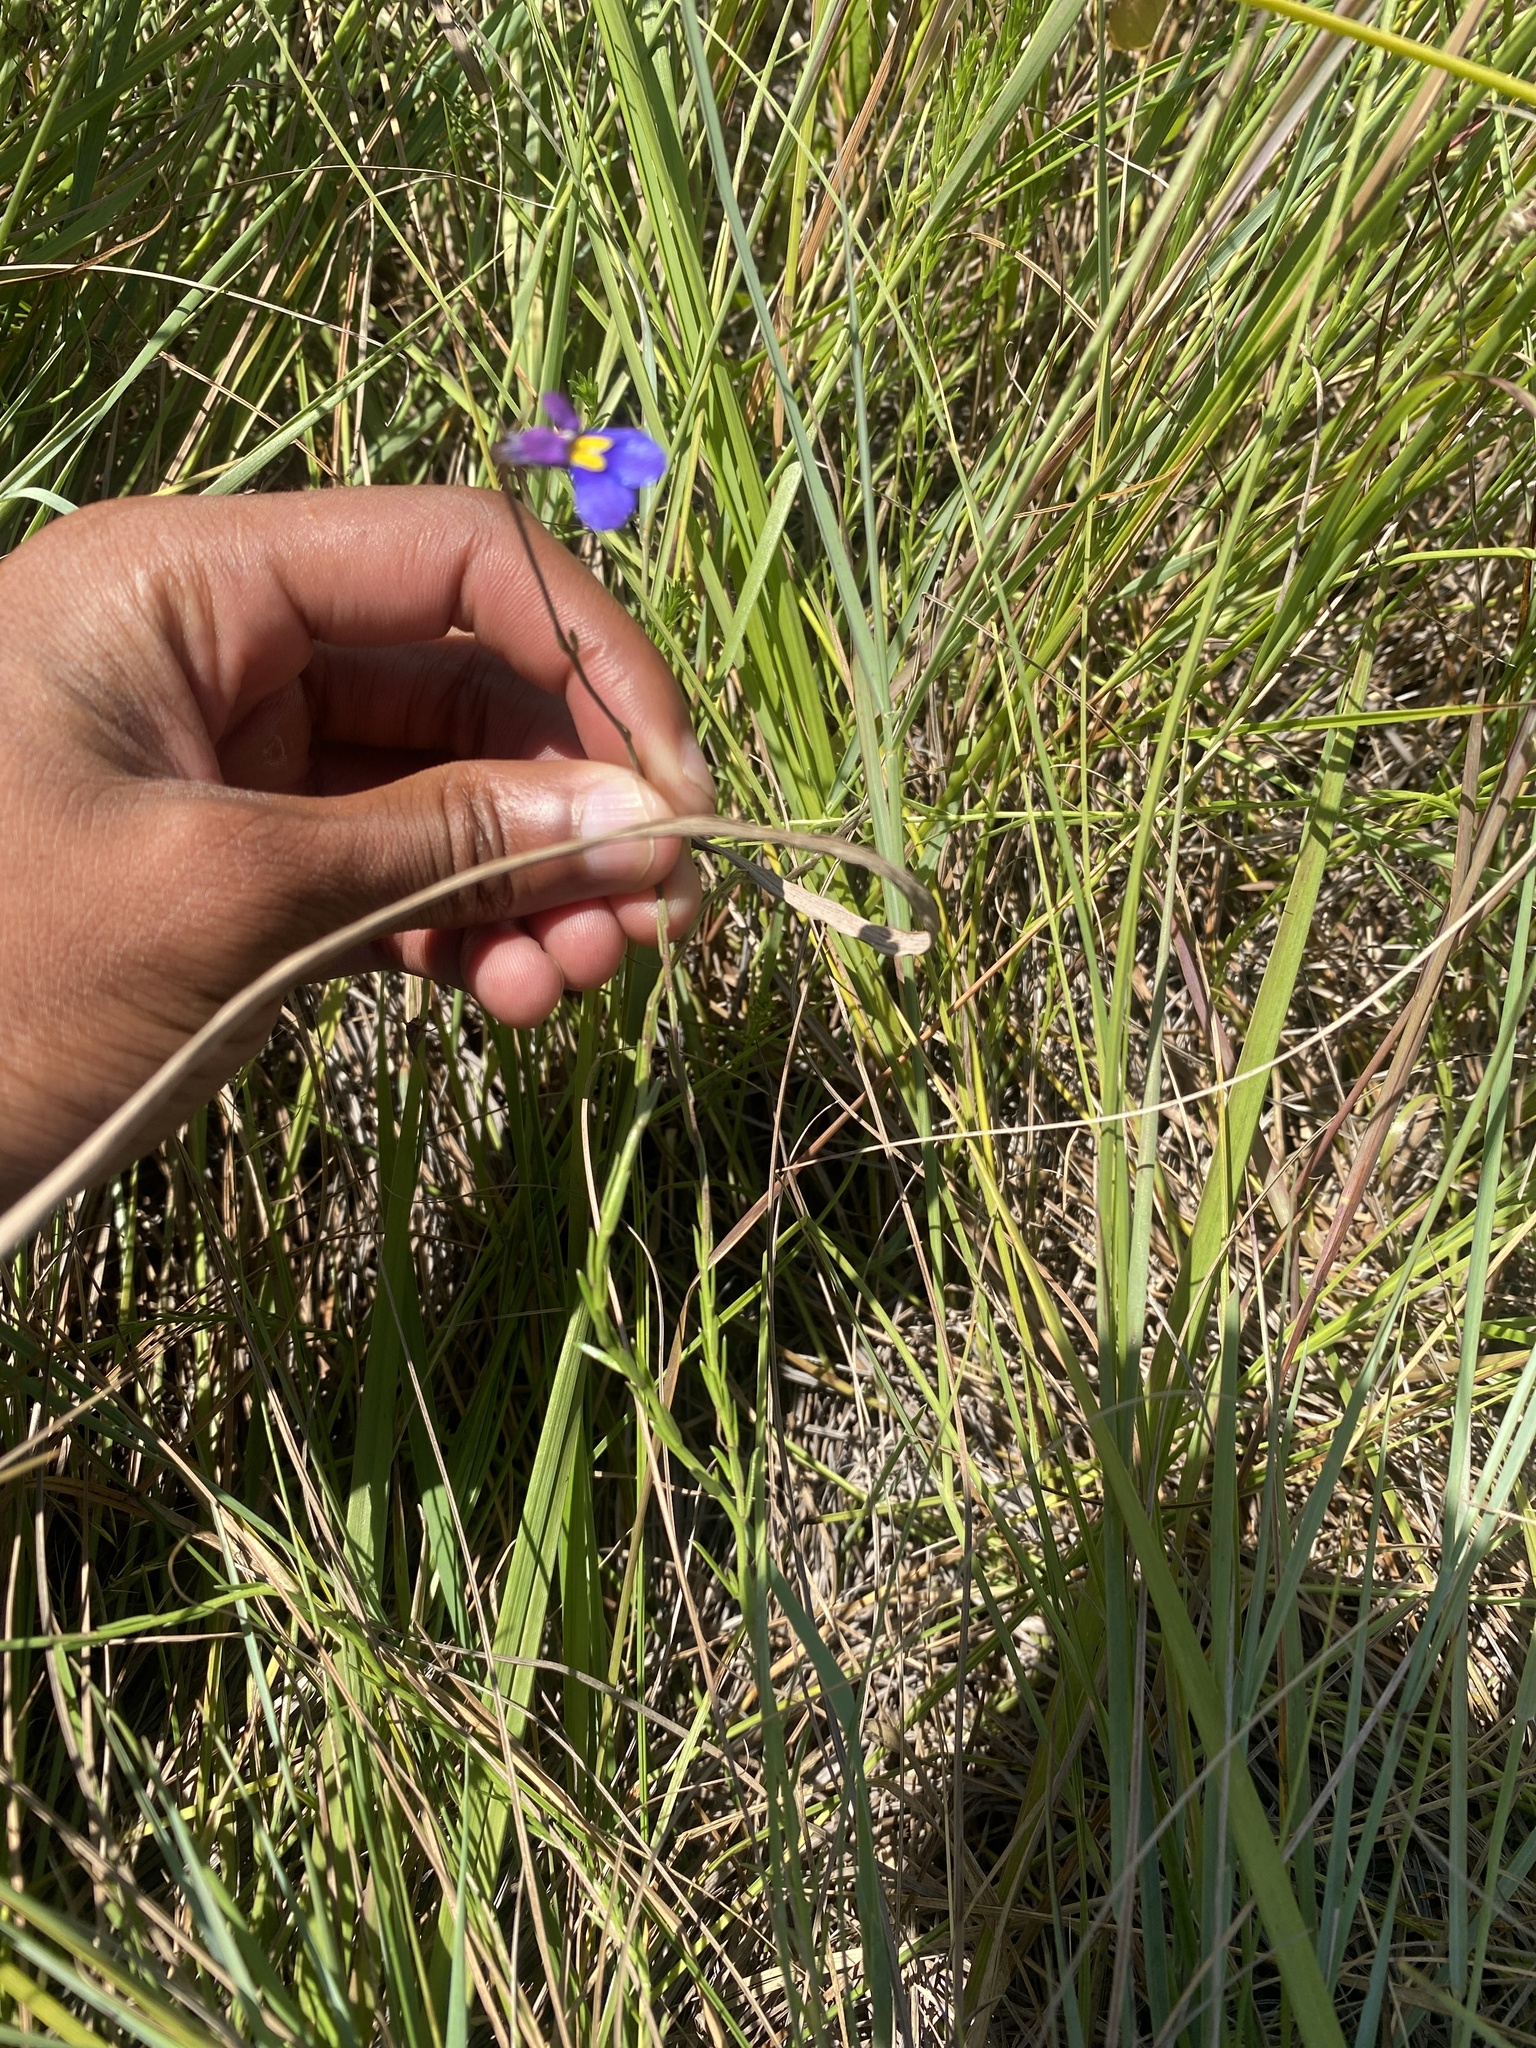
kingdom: Plantae
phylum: Tracheophyta
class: Magnoliopsida
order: Asterales
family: Campanulaceae
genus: Monopsis
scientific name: Monopsis decipiens
